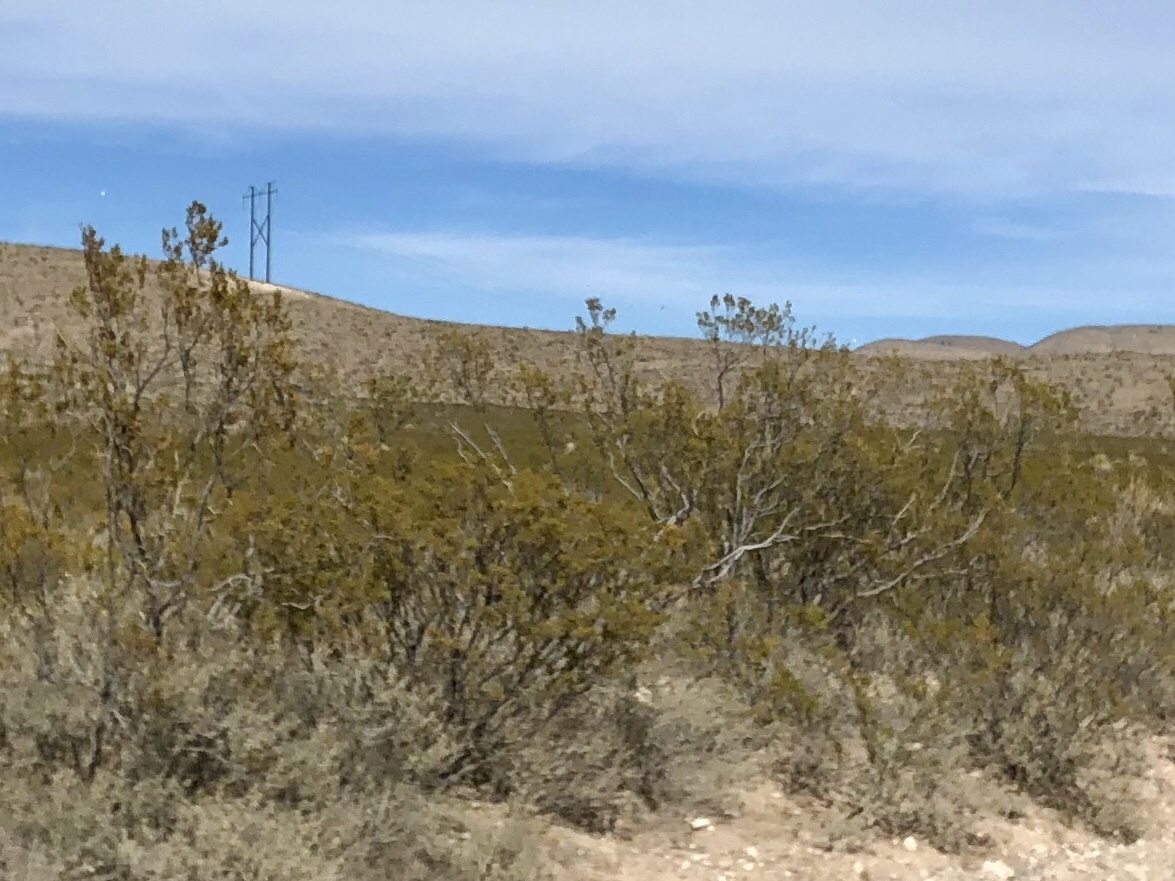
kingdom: Plantae
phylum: Tracheophyta
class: Magnoliopsida
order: Zygophyllales
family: Zygophyllaceae
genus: Larrea
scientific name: Larrea tridentata
